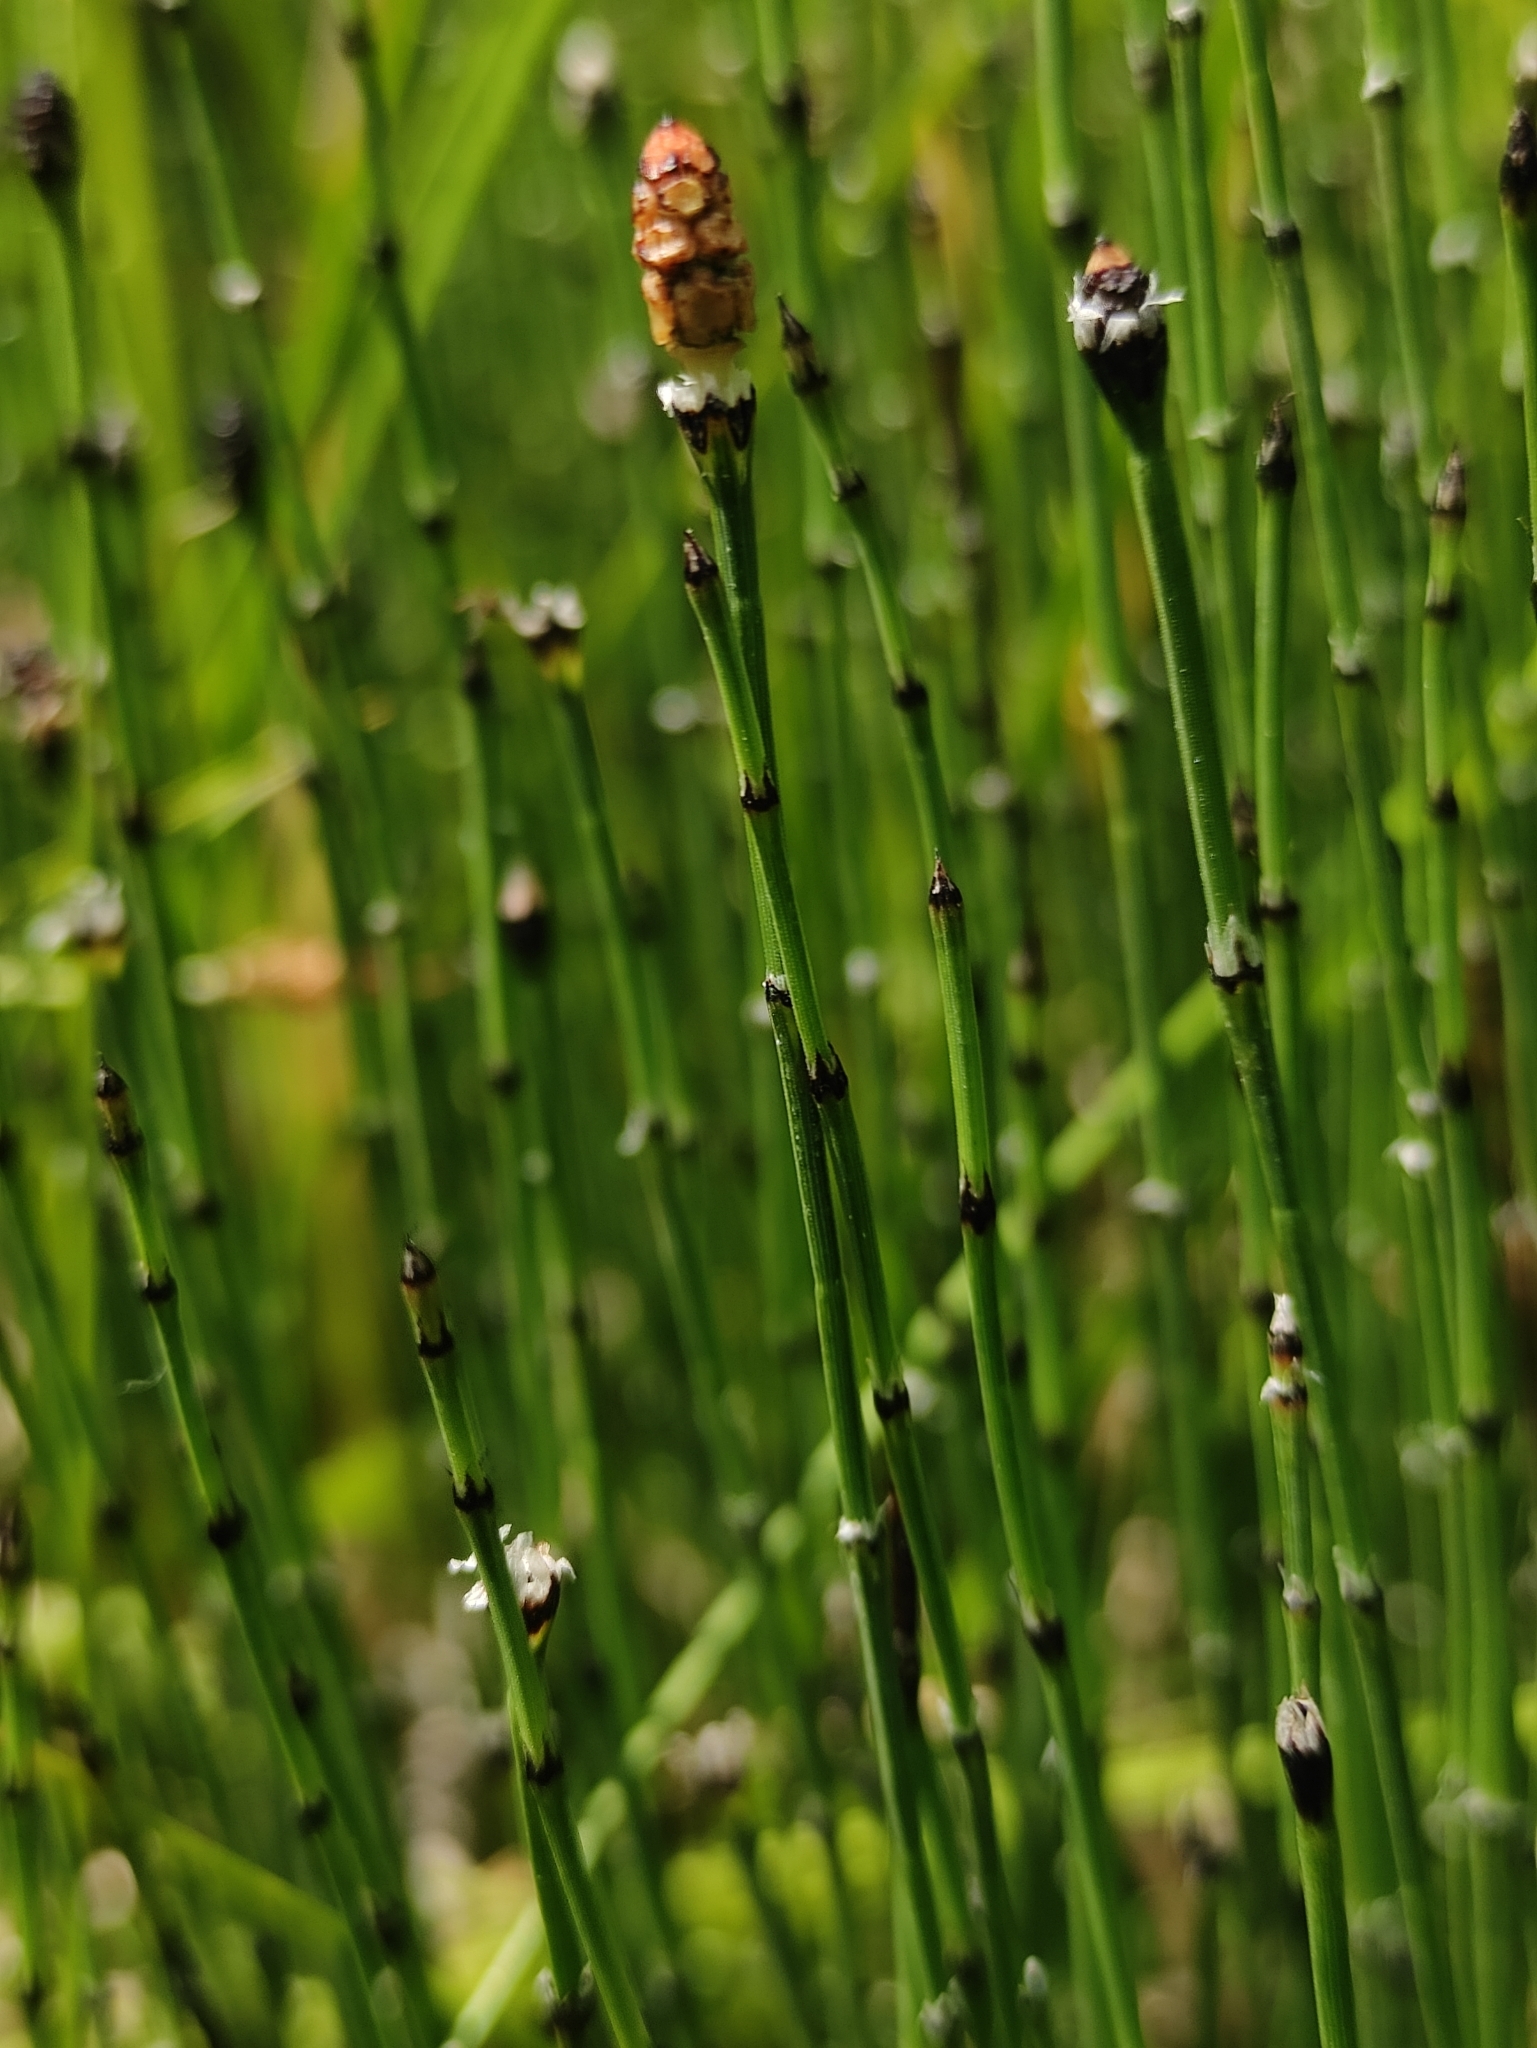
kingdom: Plantae
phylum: Tracheophyta
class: Polypodiopsida
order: Equisetales
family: Equisetaceae
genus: Equisetum
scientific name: Equisetum variegatum
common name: Variegated horsetail
